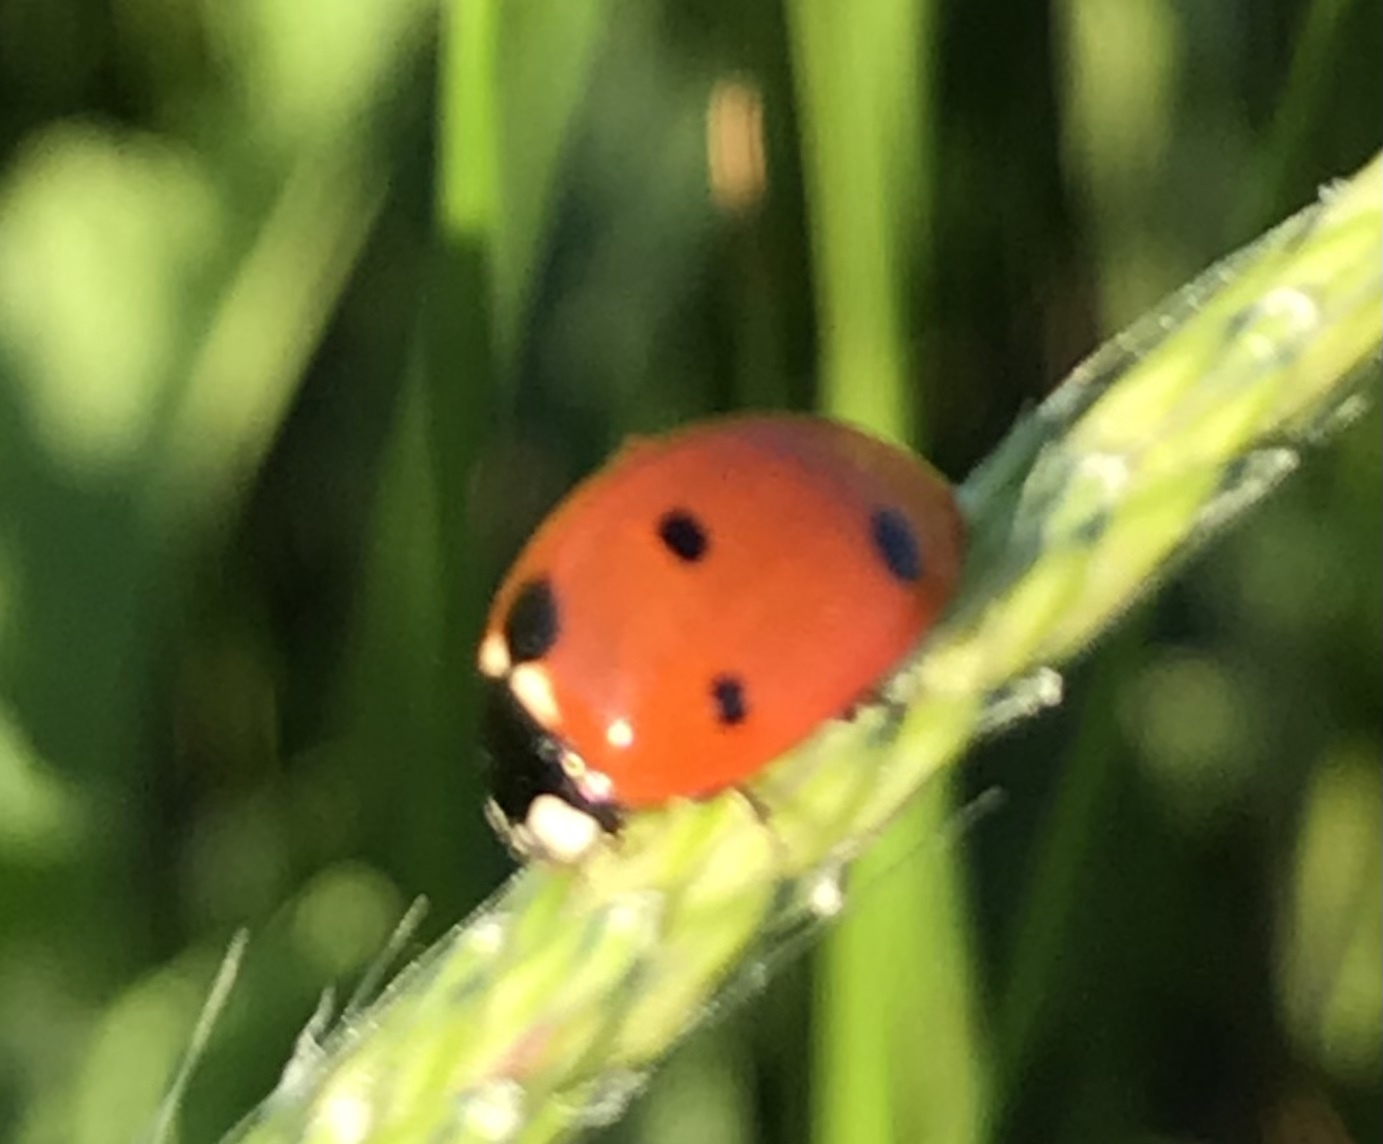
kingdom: Animalia
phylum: Arthropoda
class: Insecta
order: Coleoptera
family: Coccinellidae
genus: Coccinella
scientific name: Coccinella septempunctata
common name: Sevenspotted lady beetle
